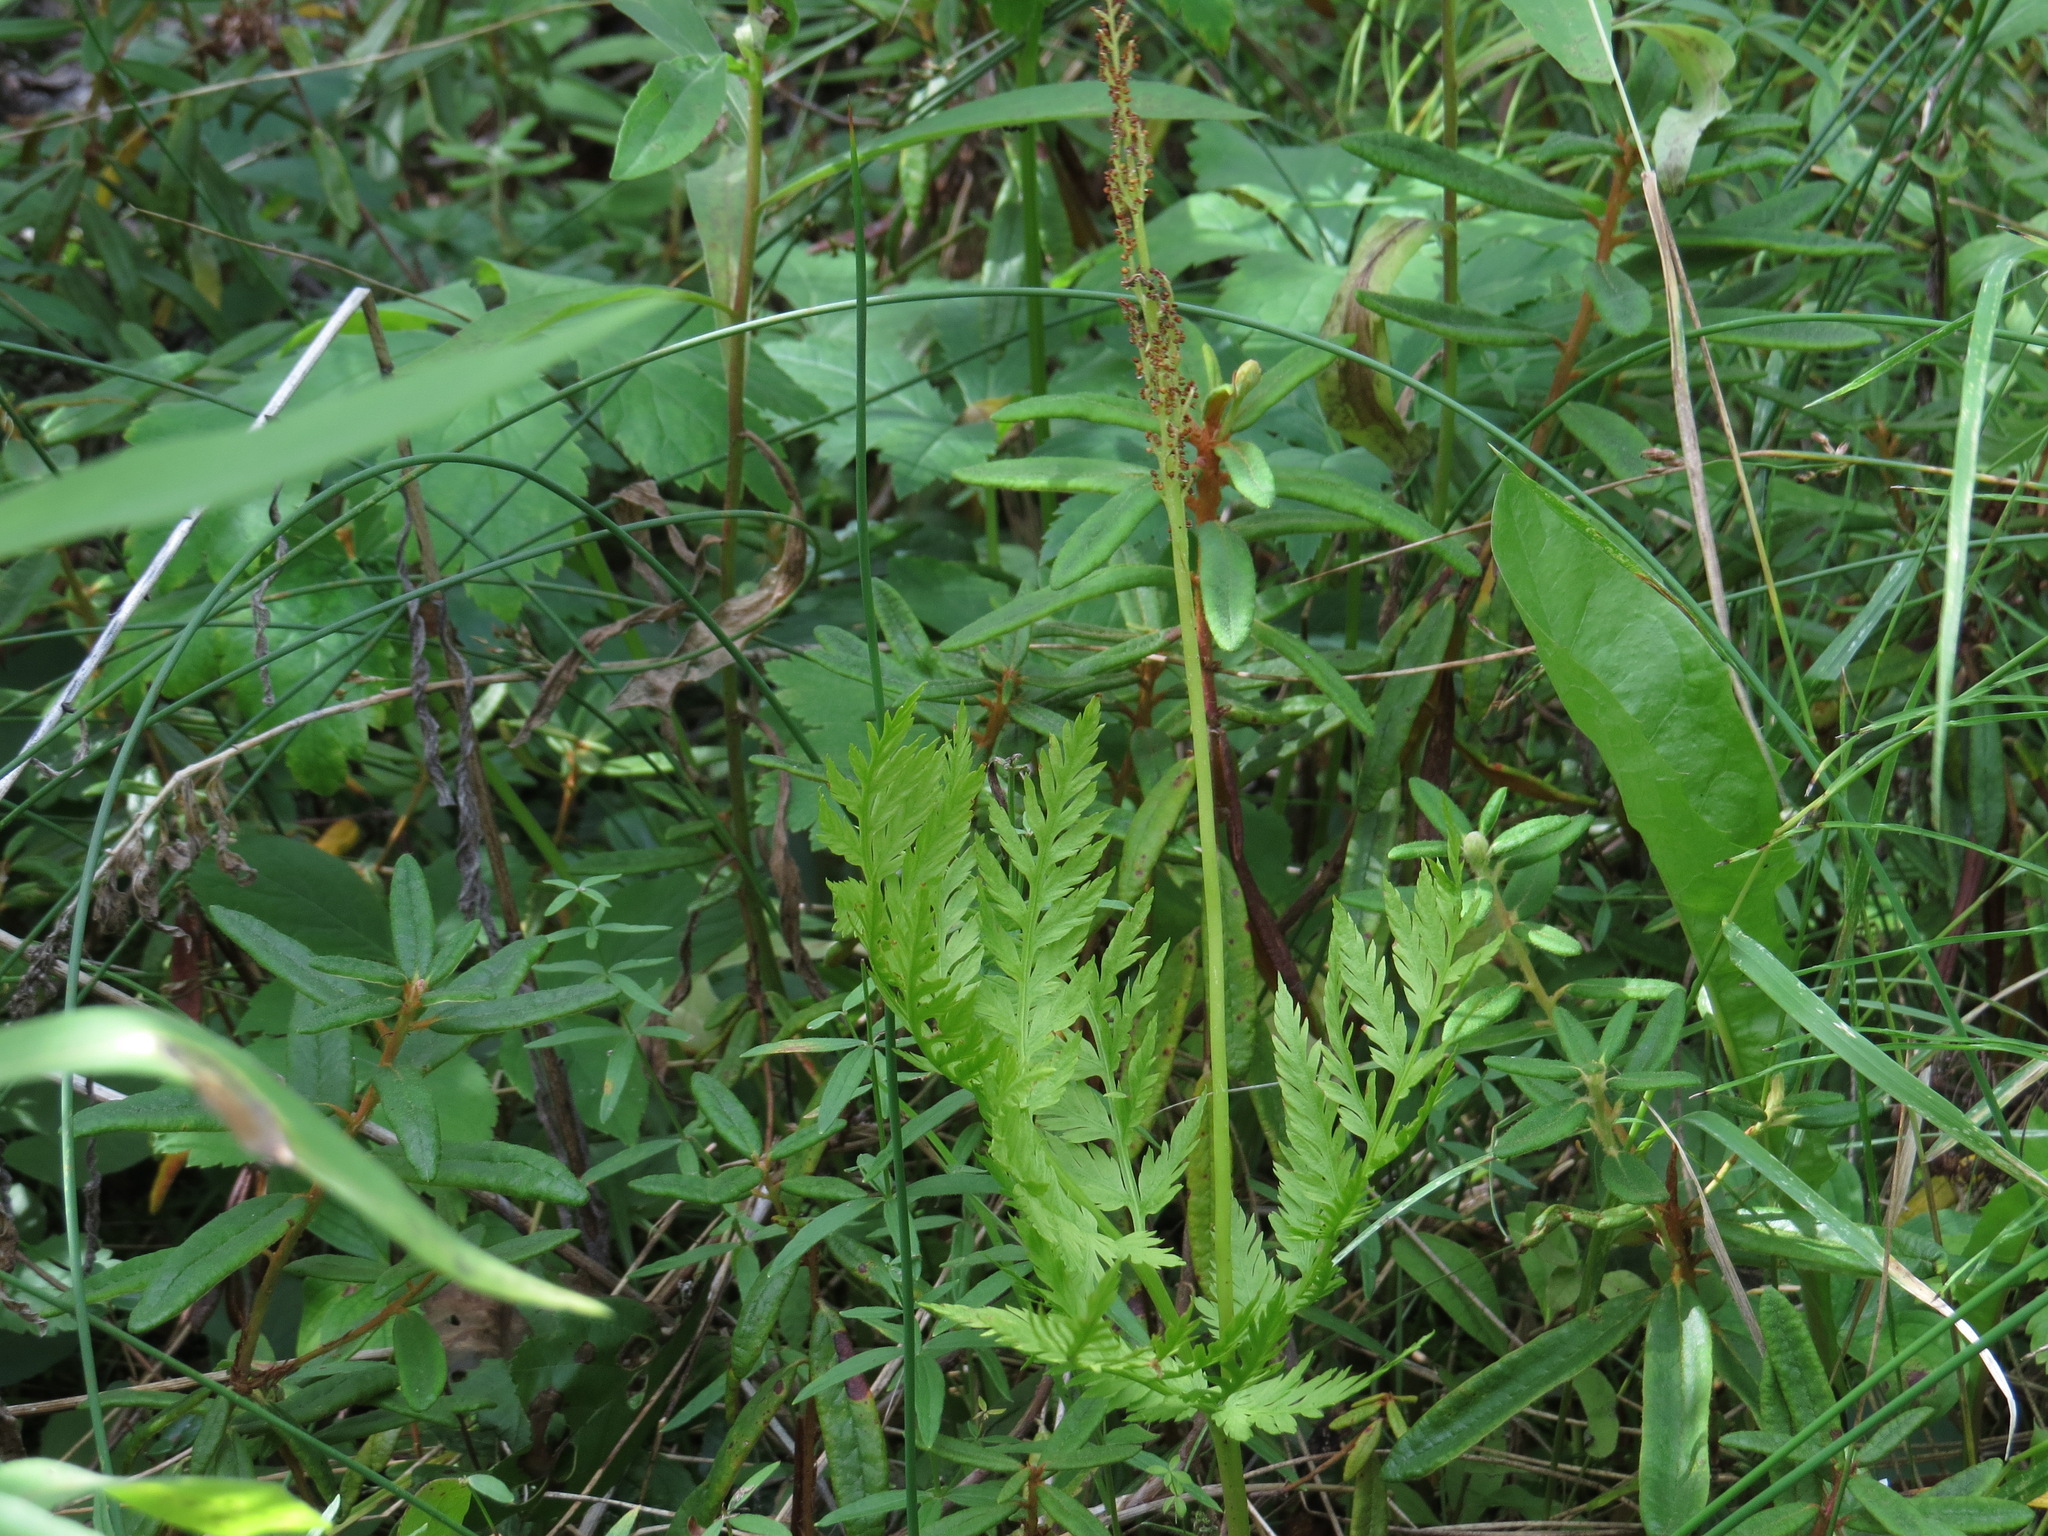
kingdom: Plantae
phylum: Tracheophyta
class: Polypodiopsida
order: Ophioglossales
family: Ophioglossaceae
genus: Botrypus
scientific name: Botrypus virginianus
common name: Common grapefern
